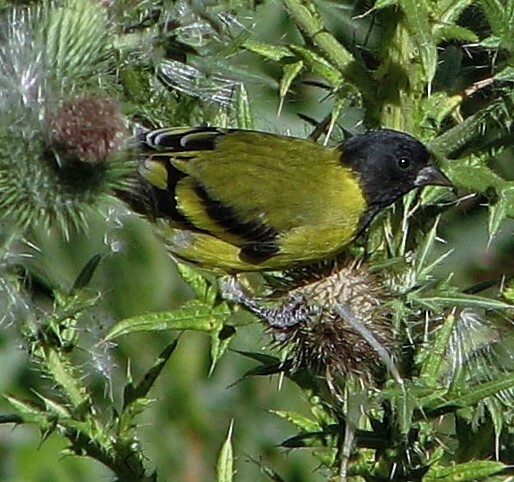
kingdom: Animalia
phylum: Chordata
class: Aves
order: Passeriformes
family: Fringillidae
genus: Spinus
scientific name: Spinus magellanicus
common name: Hooded siskin
